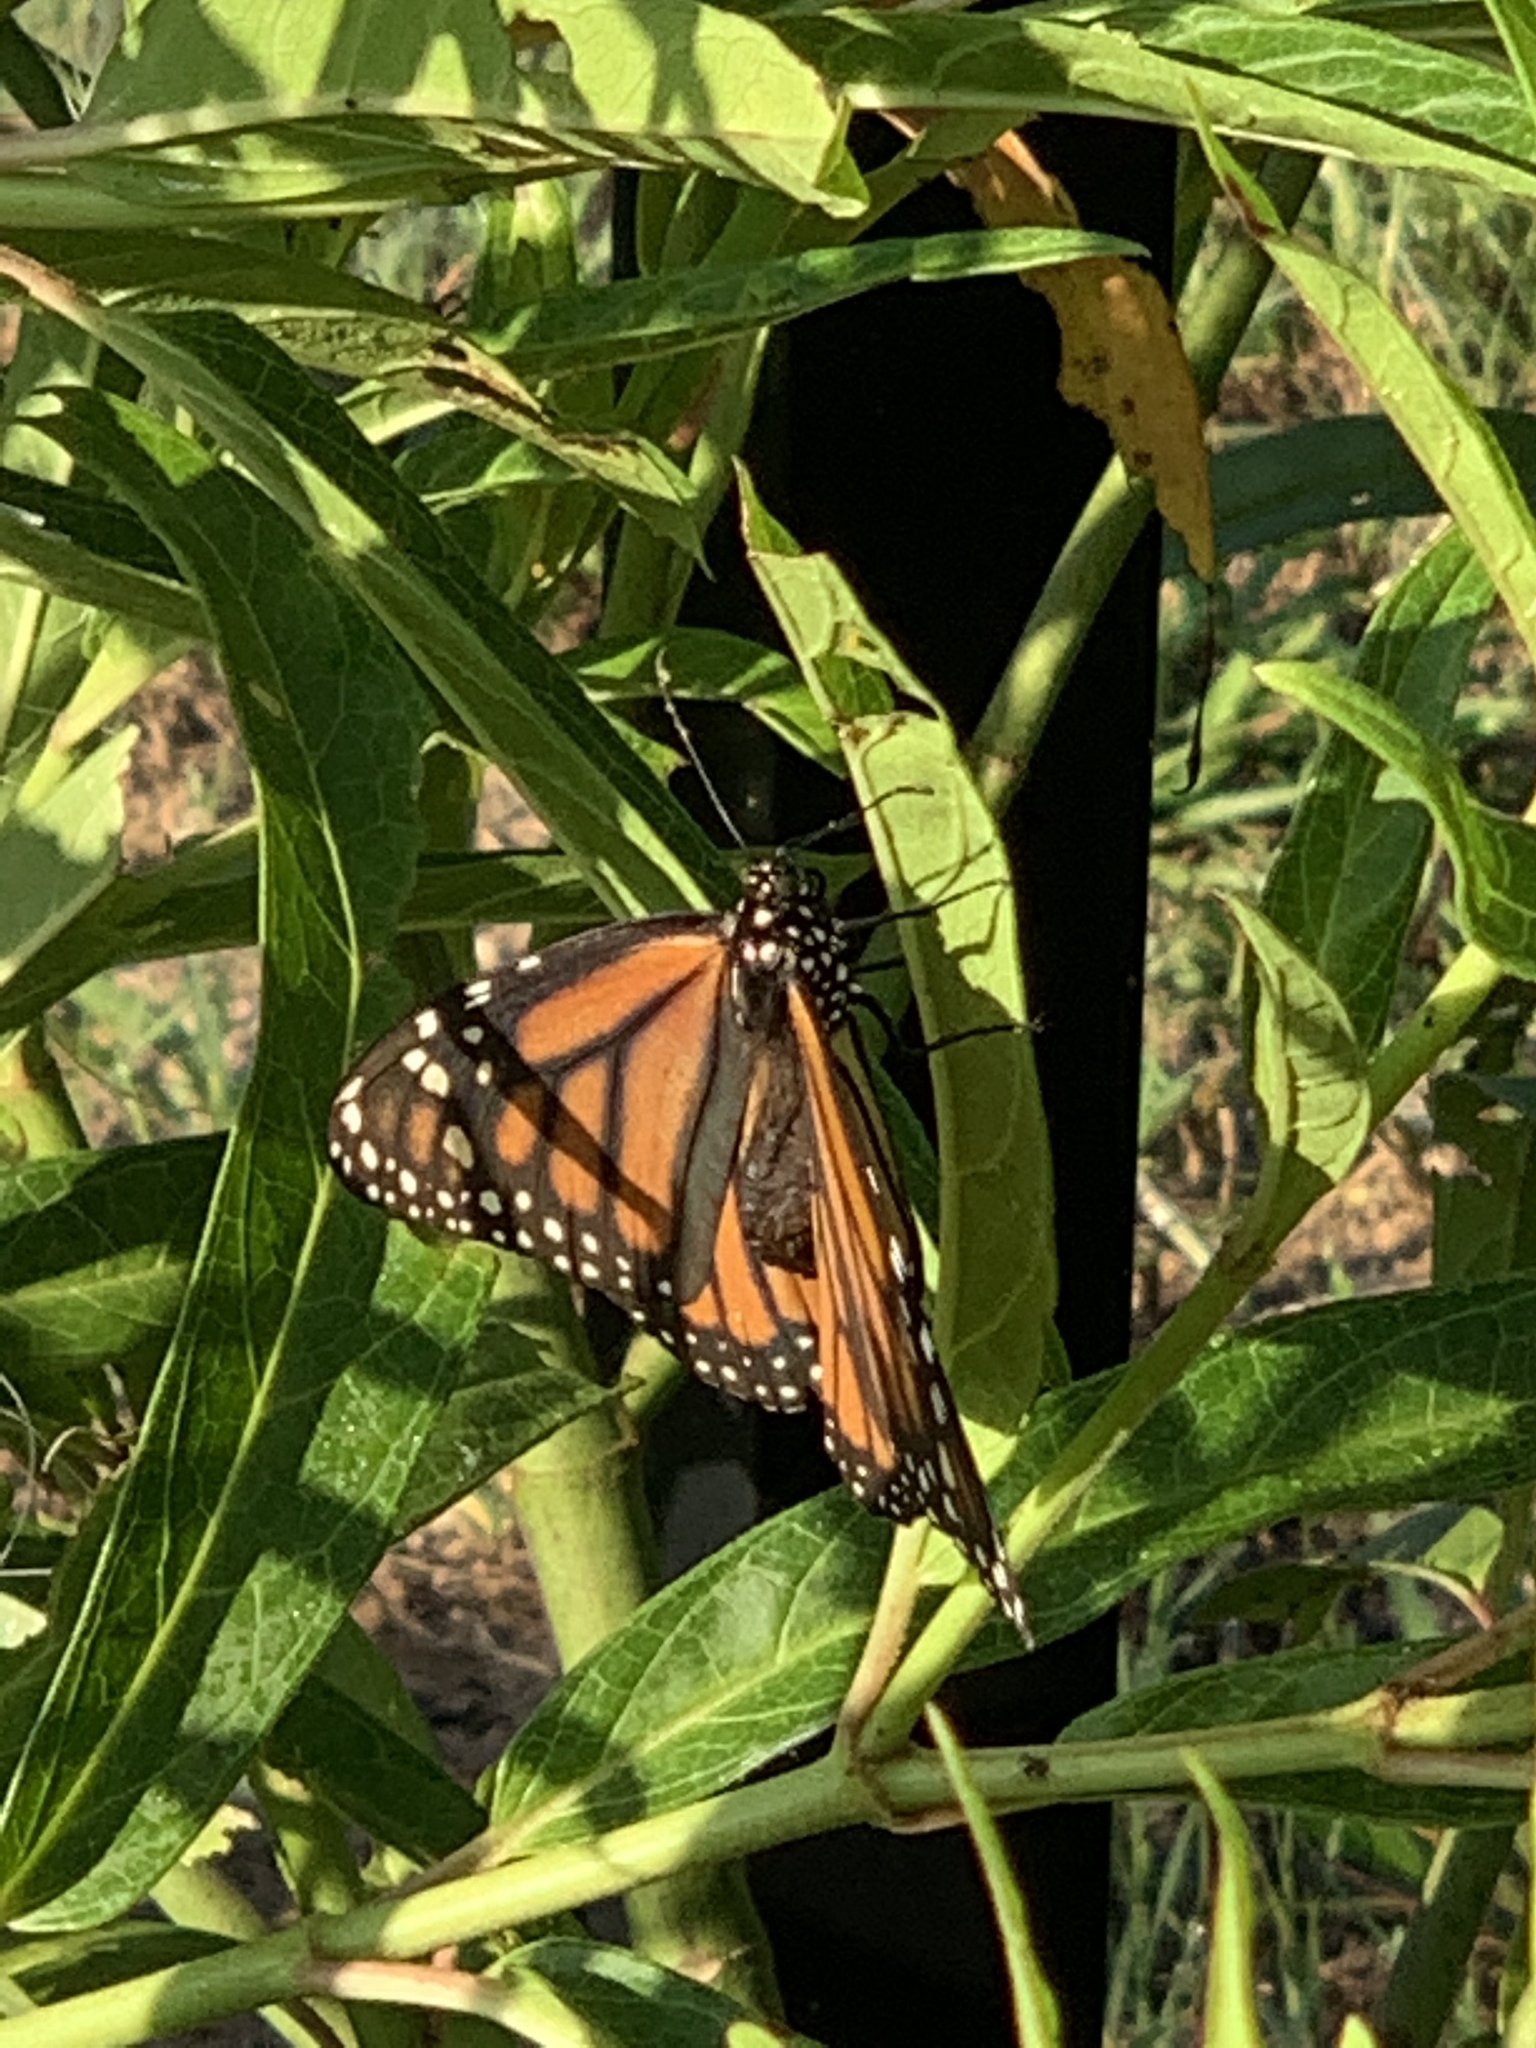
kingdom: Animalia
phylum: Arthropoda
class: Insecta
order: Lepidoptera
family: Nymphalidae
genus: Danaus
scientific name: Danaus plexippus
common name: Monarch
